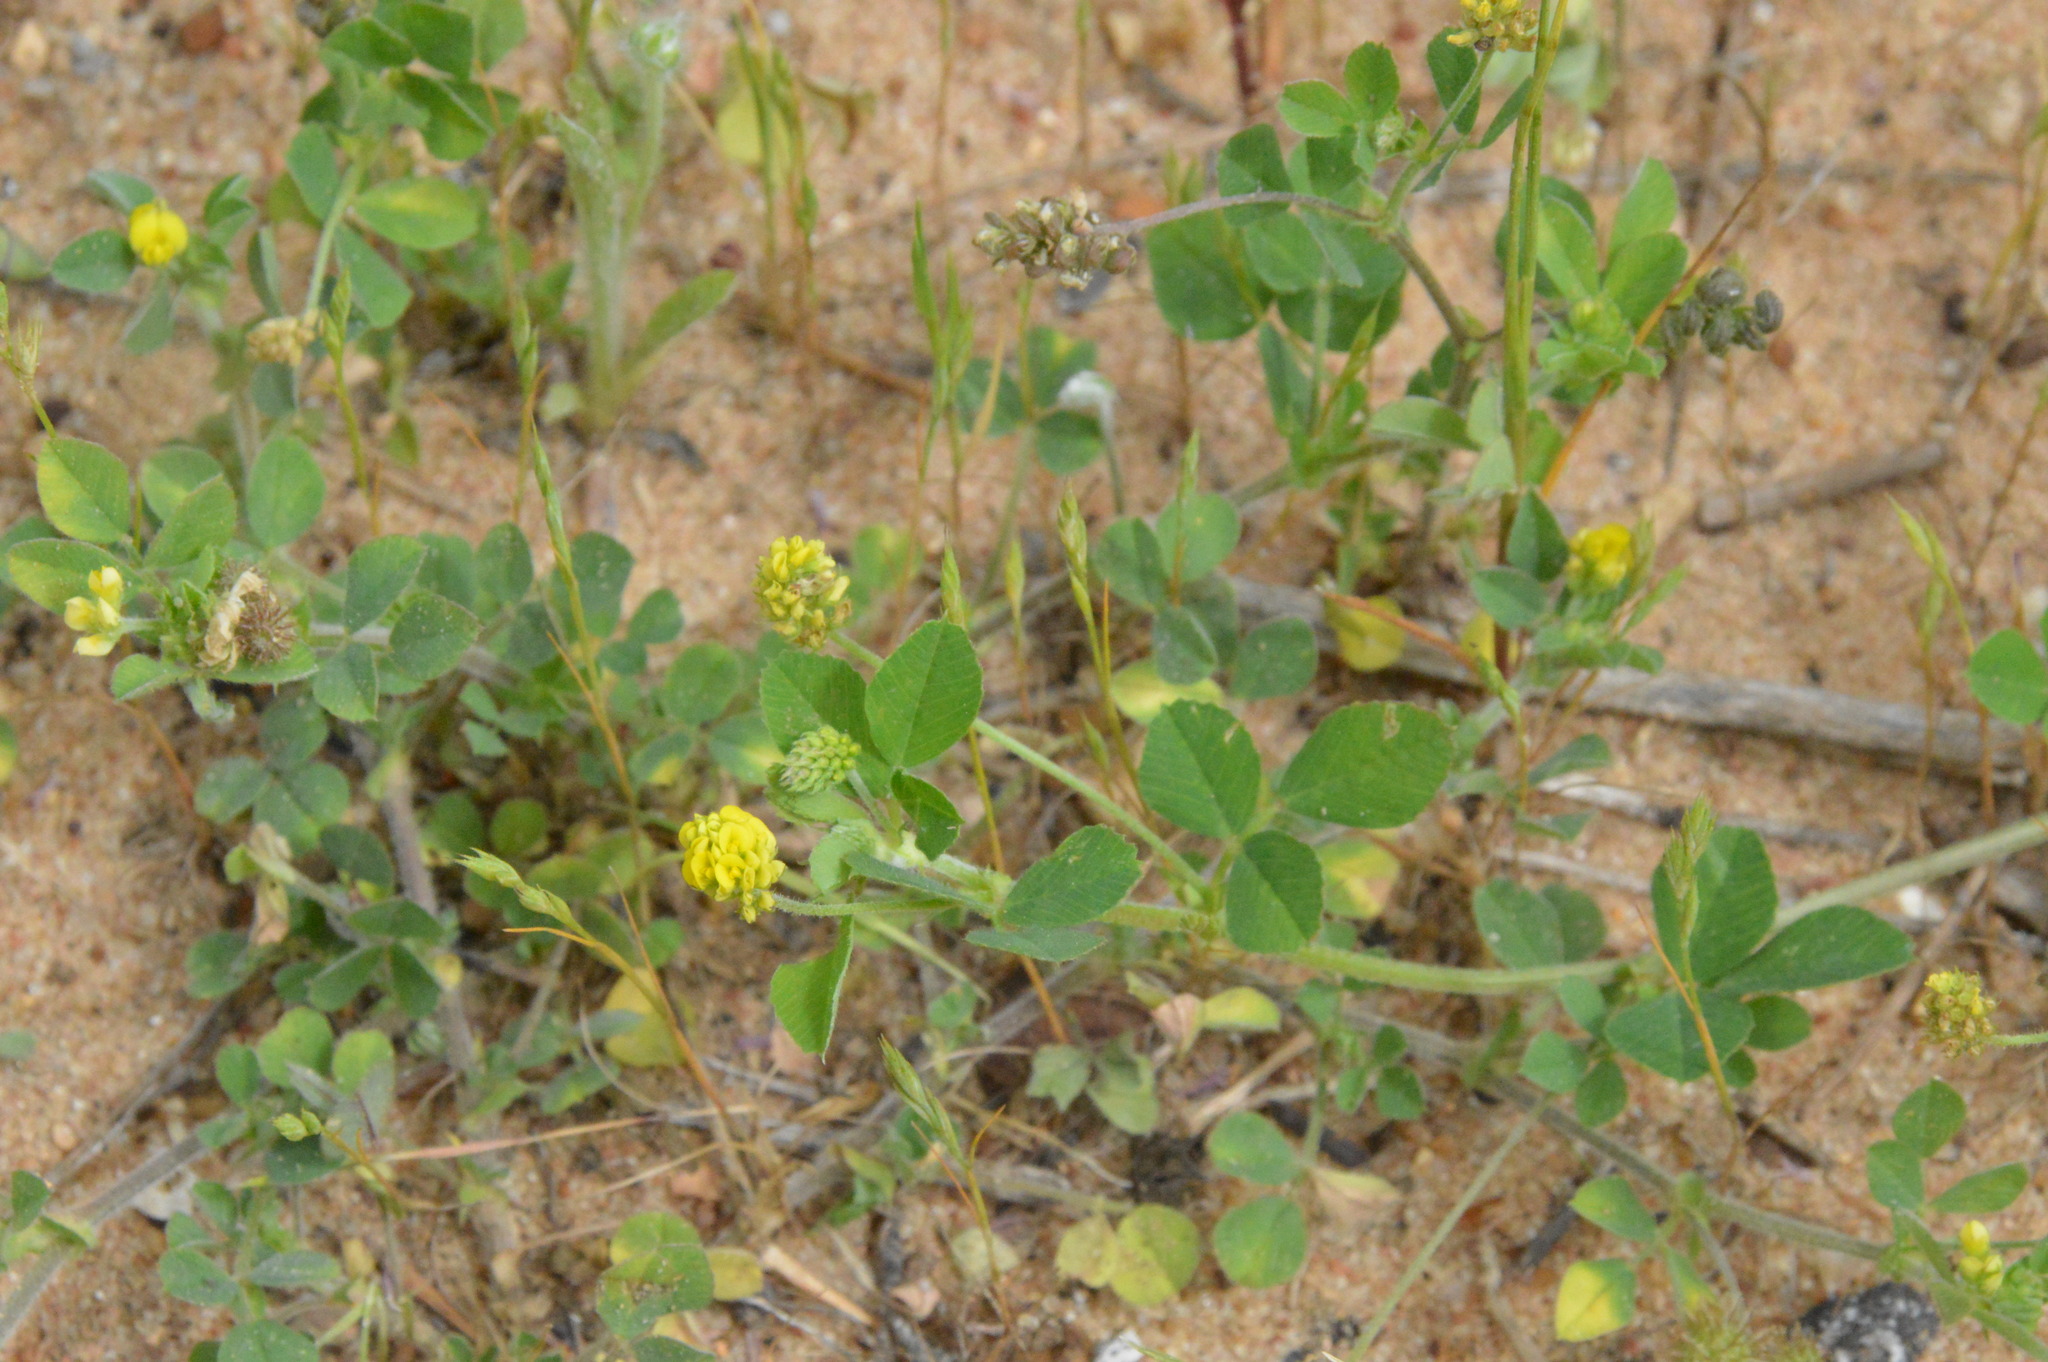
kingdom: Plantae
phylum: Tracheophyta
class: Magnoliopsida
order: Fabales
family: Fabaceae
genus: Medicago
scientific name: Medicago lupulina
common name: Black medick
